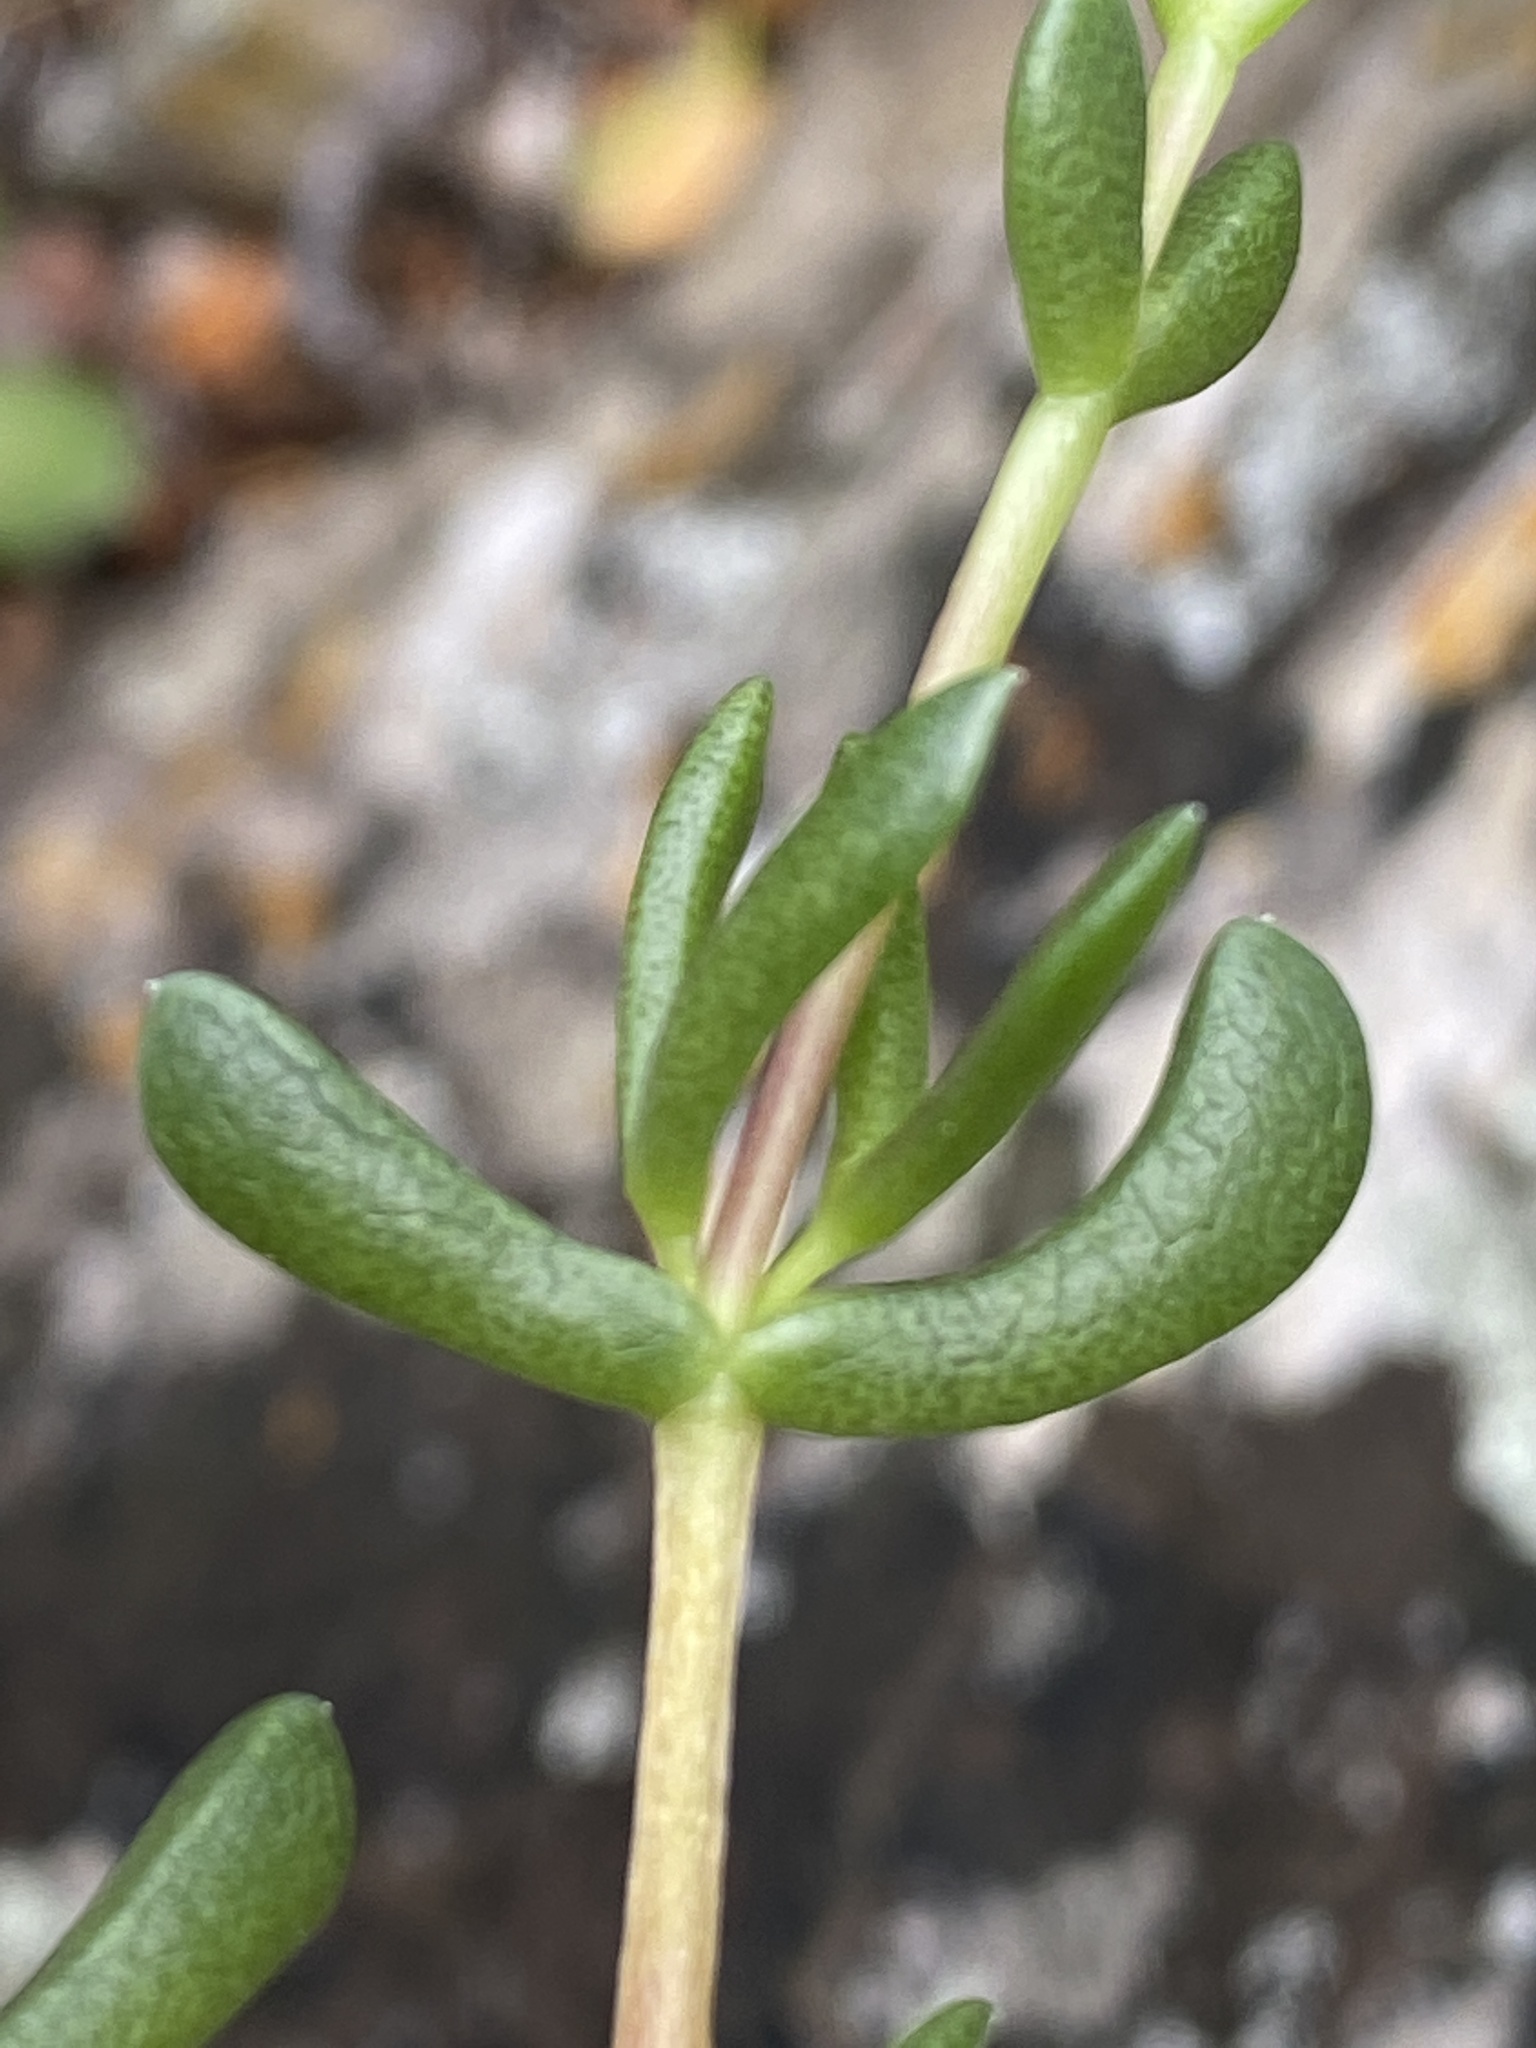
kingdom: Plantae
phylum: Tracheophyta
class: Magnoliopsida
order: Caryophyllales
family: Aizoaceae
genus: Ruschia
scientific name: Ruschia fourcadei
